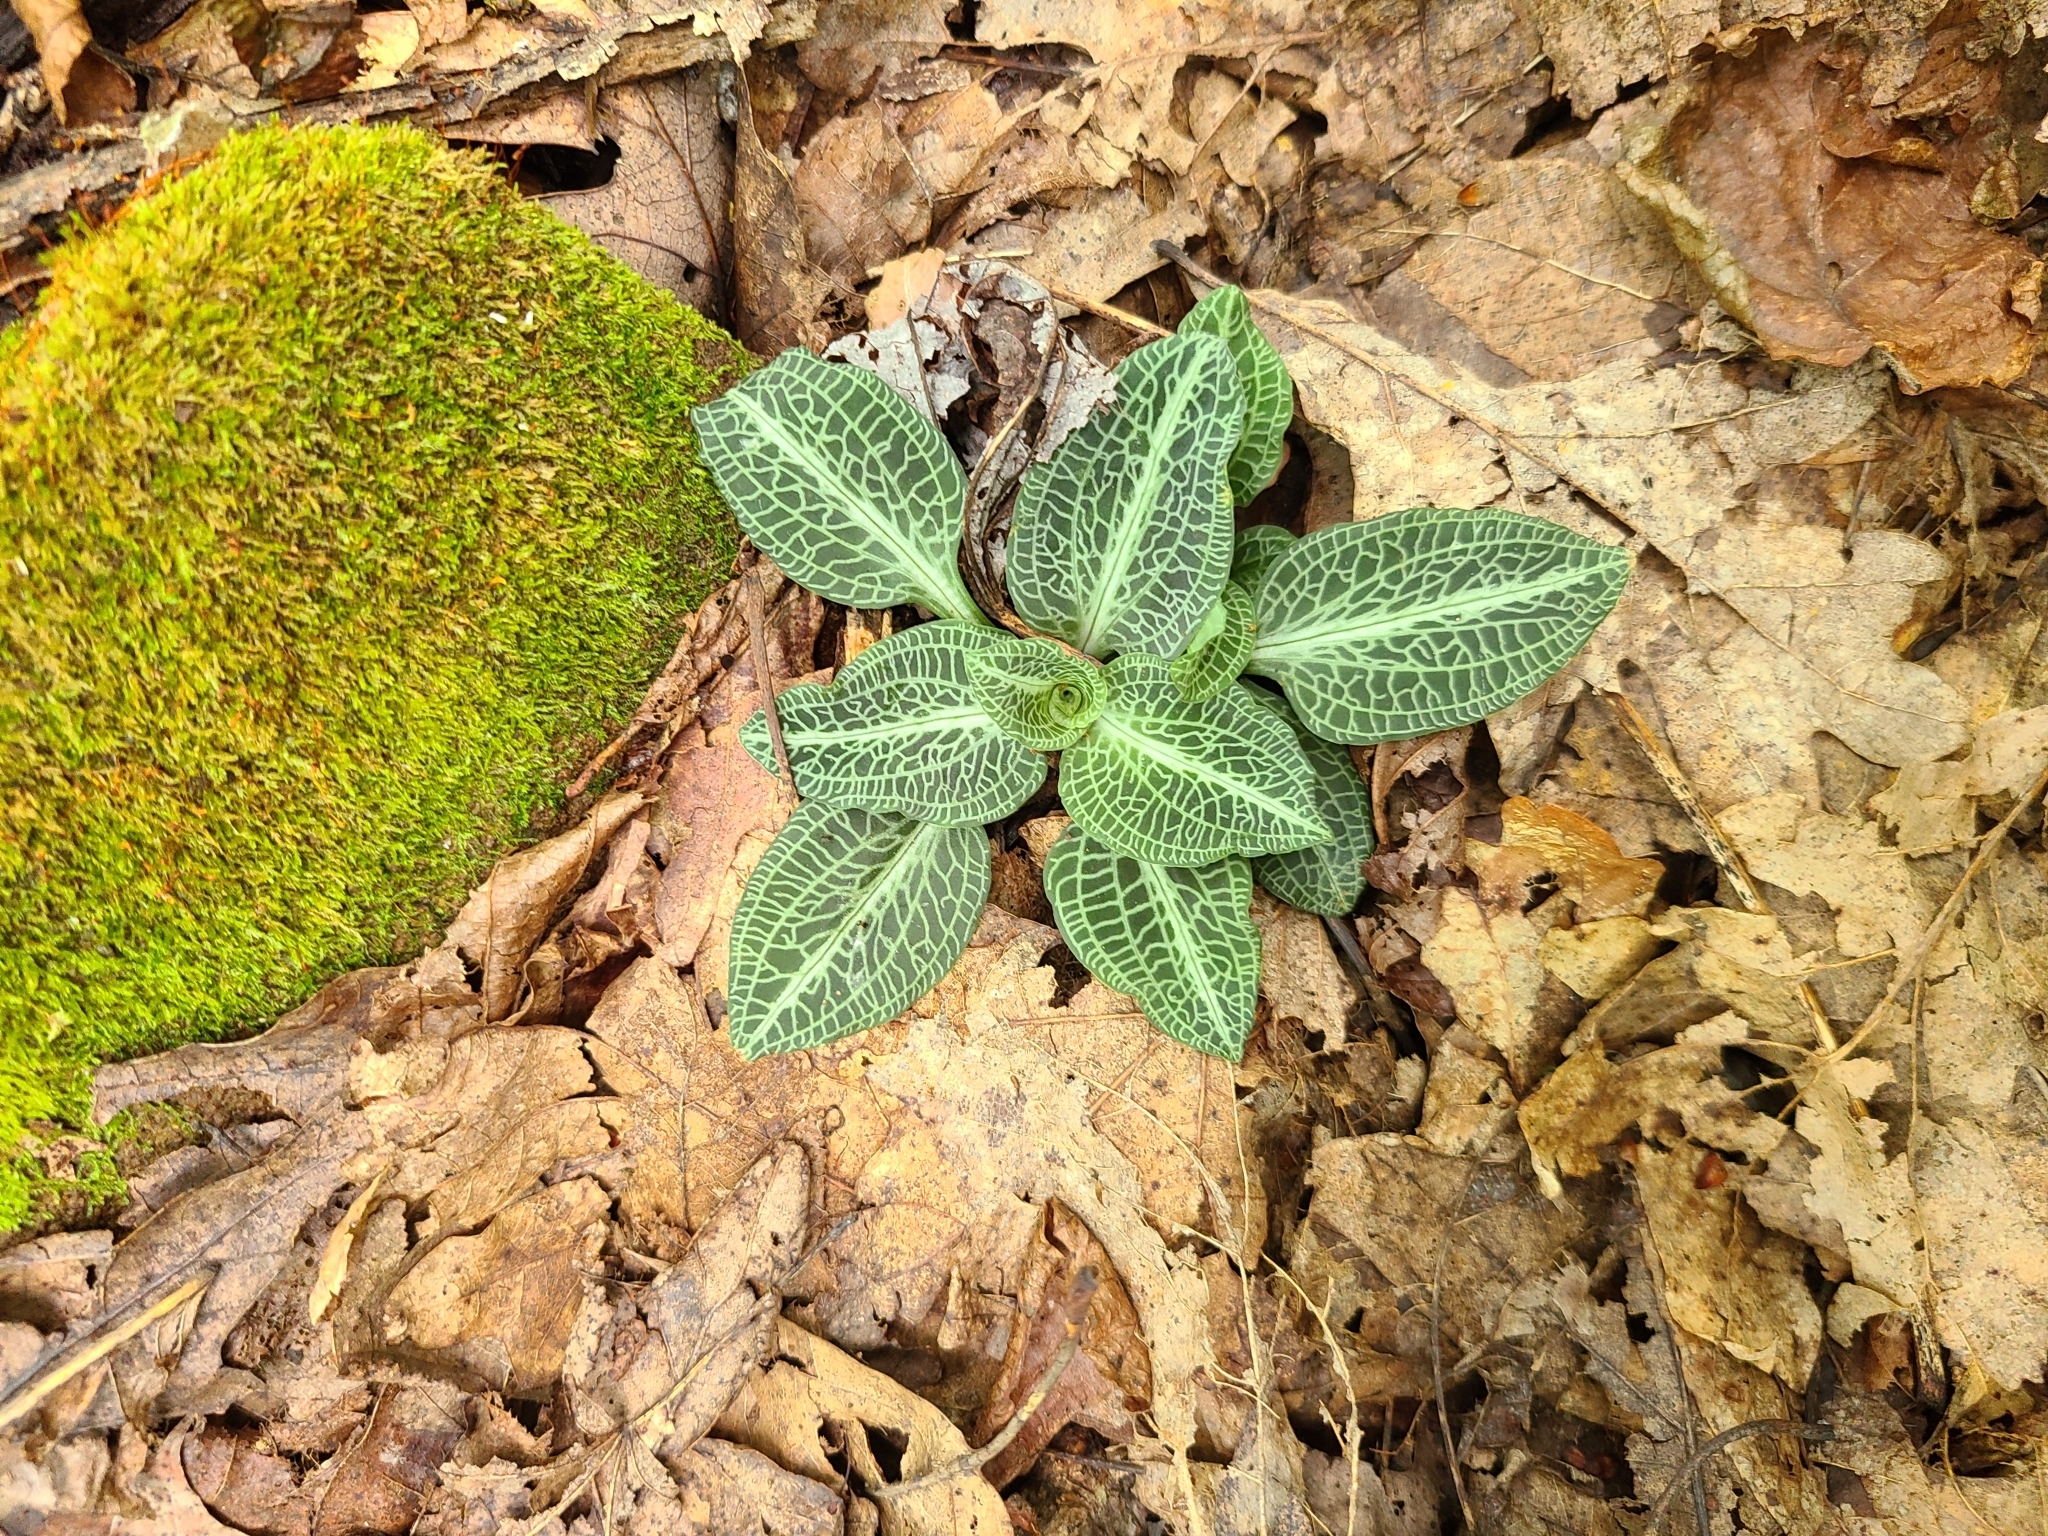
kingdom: Plantae
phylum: Tracheophyta
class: Liliopsida
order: Asparagales
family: Orchidaceae
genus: Goodyera
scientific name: Goodyera pubescens
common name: Downy rattlesnake-plantain
